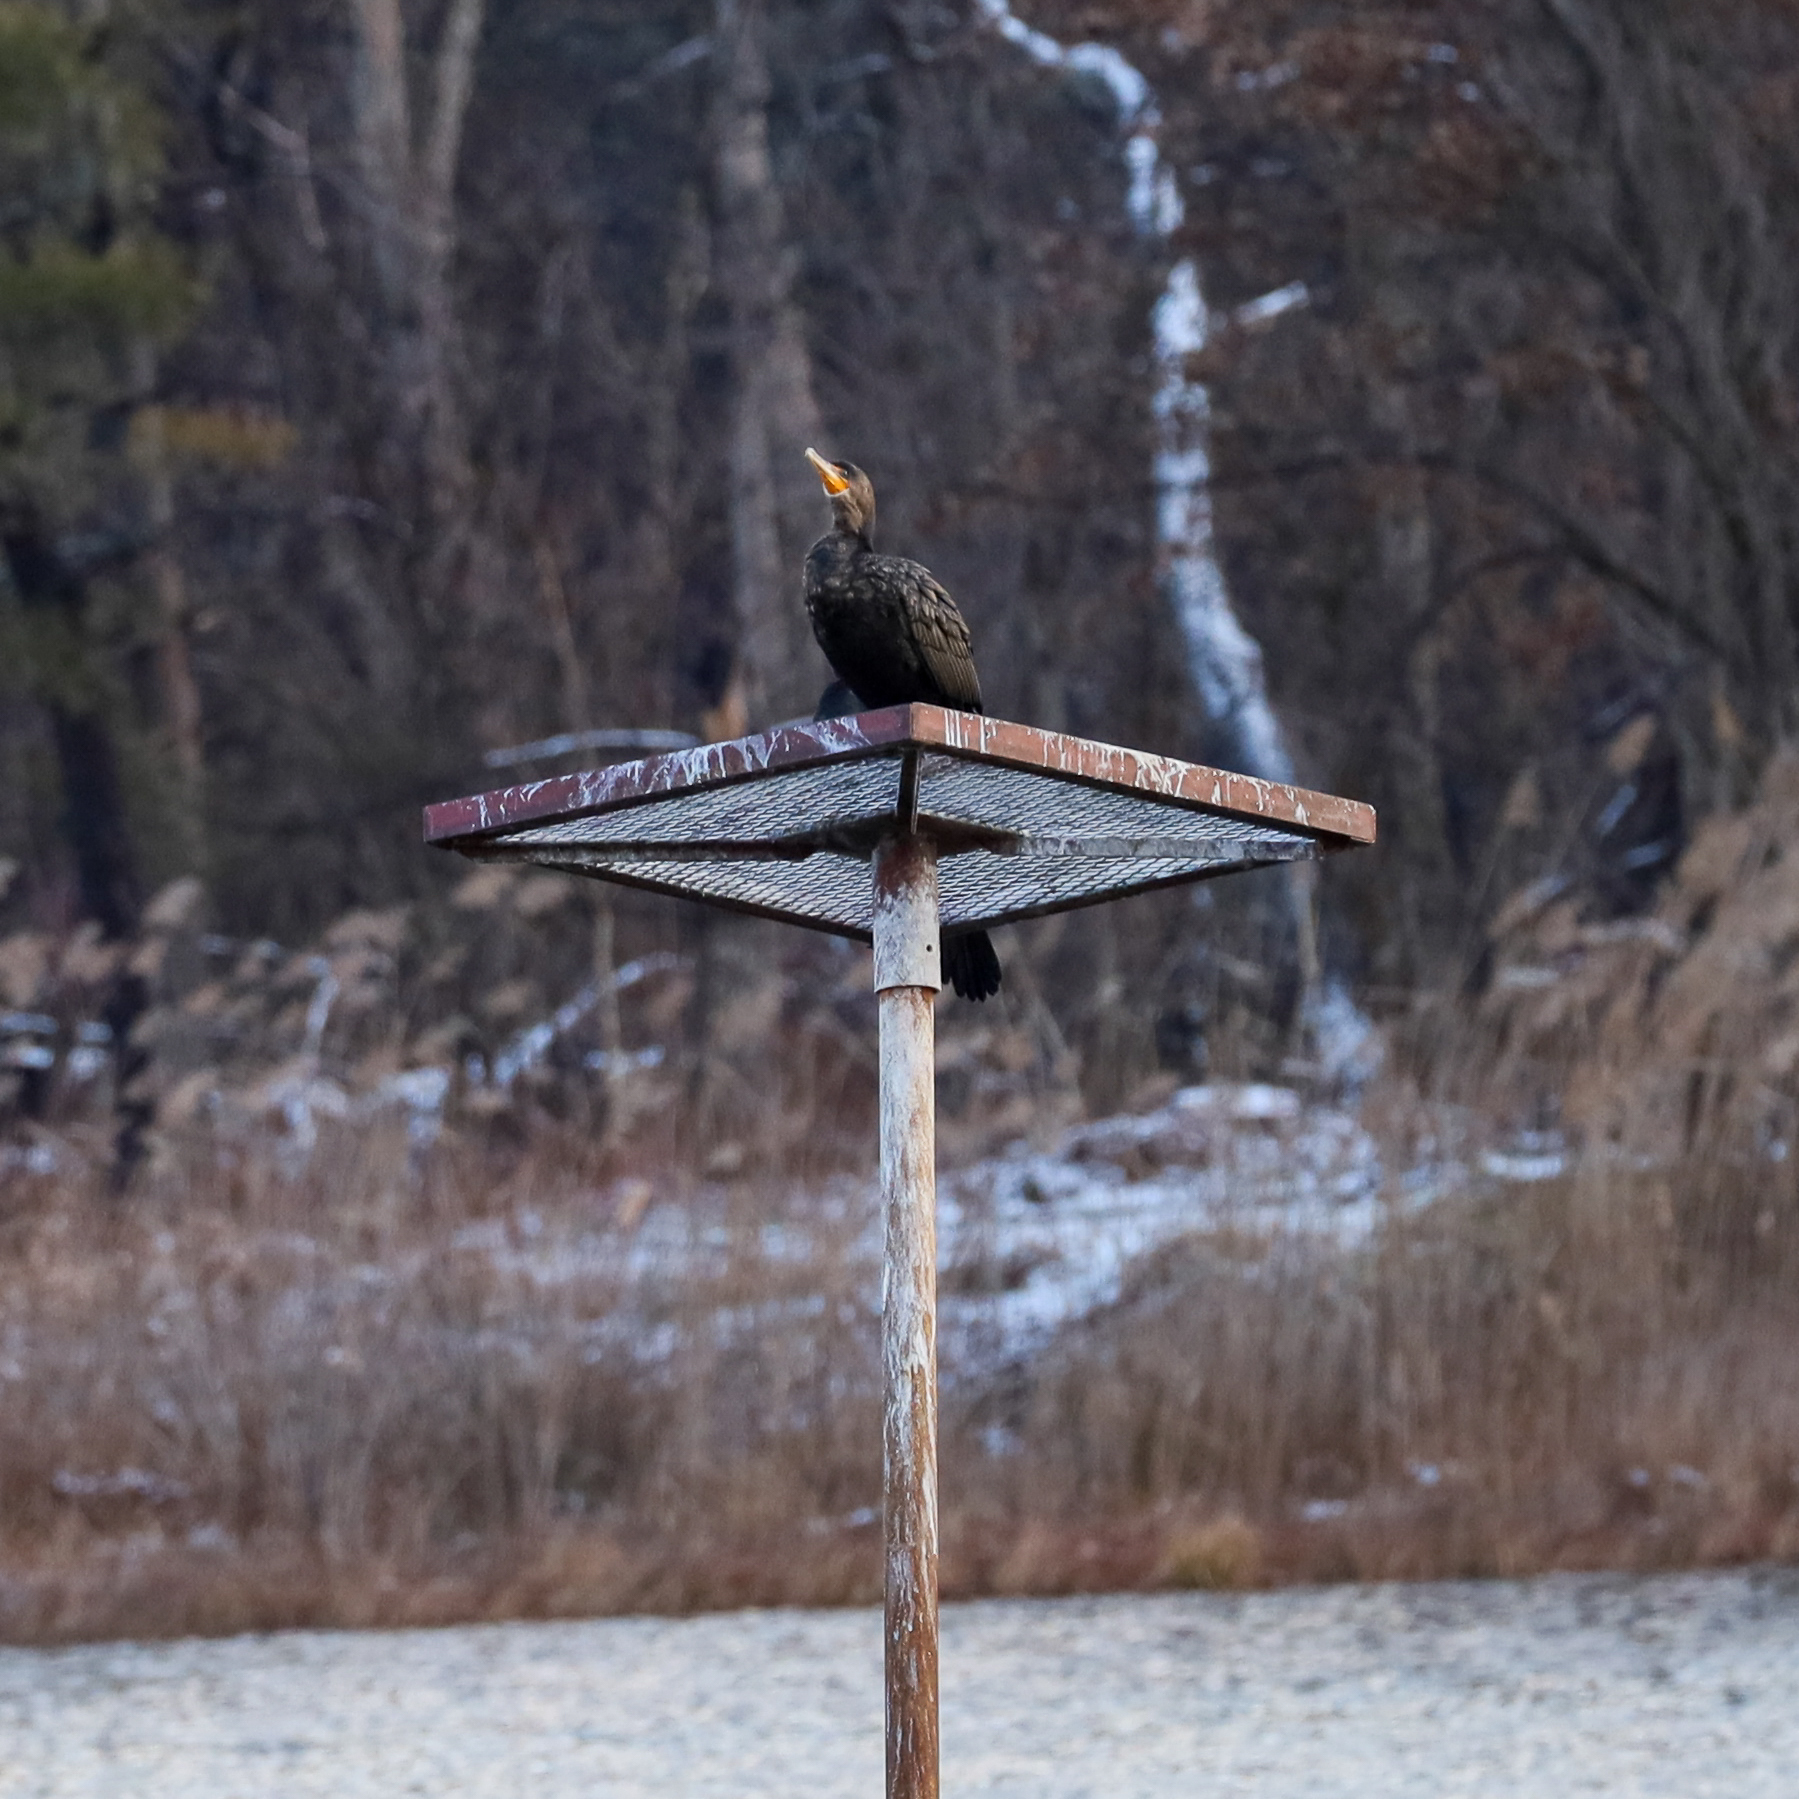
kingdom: Animalia
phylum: Chordata
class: Aves
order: Suliformes
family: Phalacrocoracidae
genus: Phalacrocorax
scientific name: Phalacrocorax auritus
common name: Double-crested cormorant
